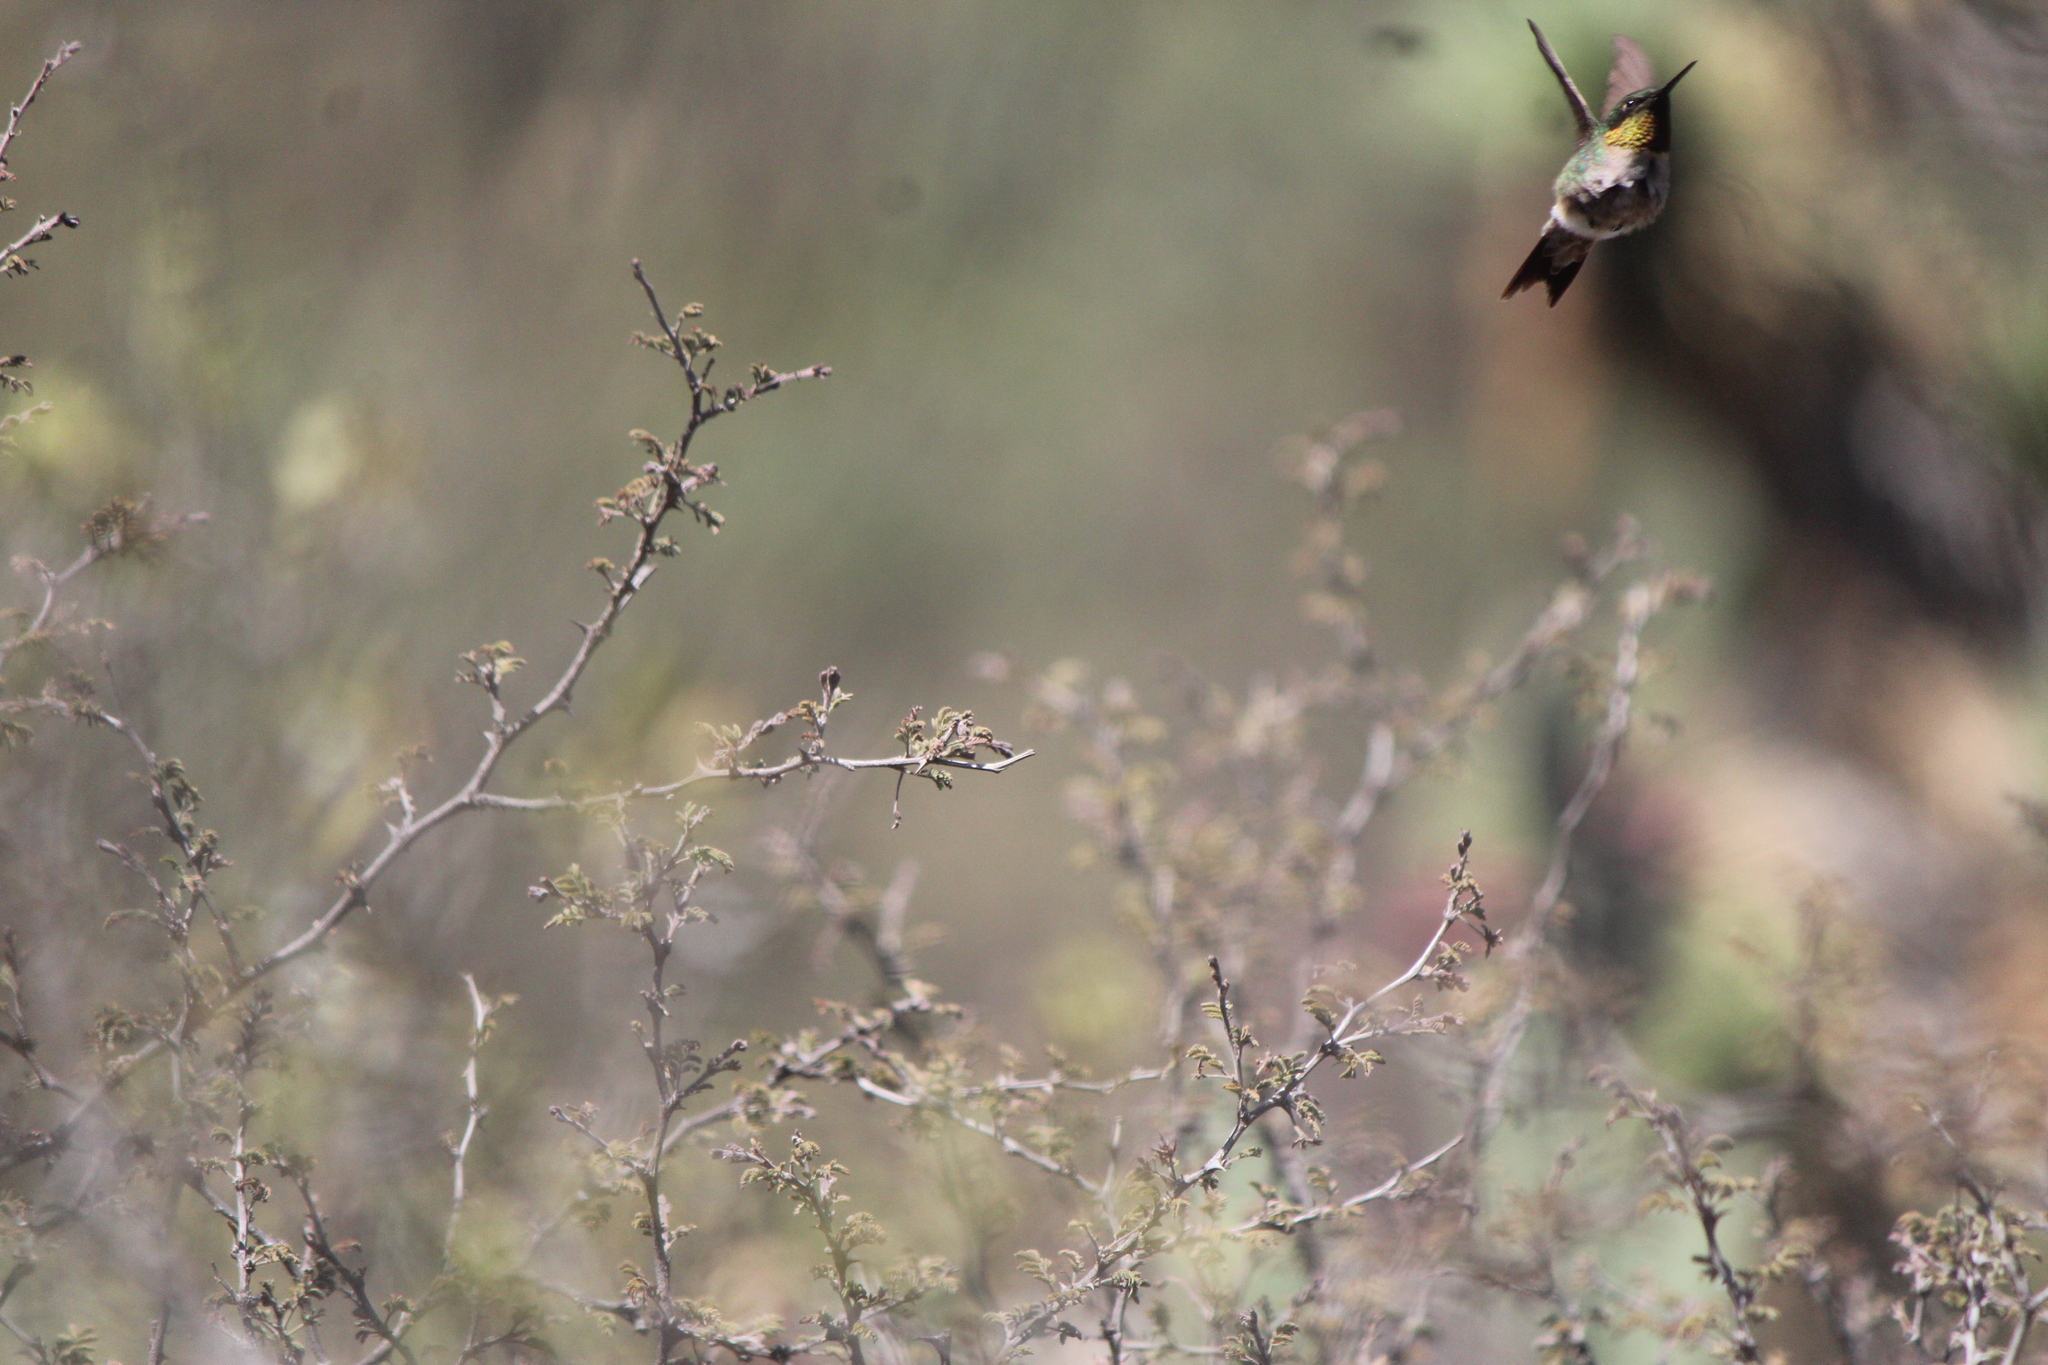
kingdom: Animalia
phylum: Chordata
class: Aves
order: Apodiformes
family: Trochilidae
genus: Archilochus
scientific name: Archilochus colubris
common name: Ruby-throated hummingbird
